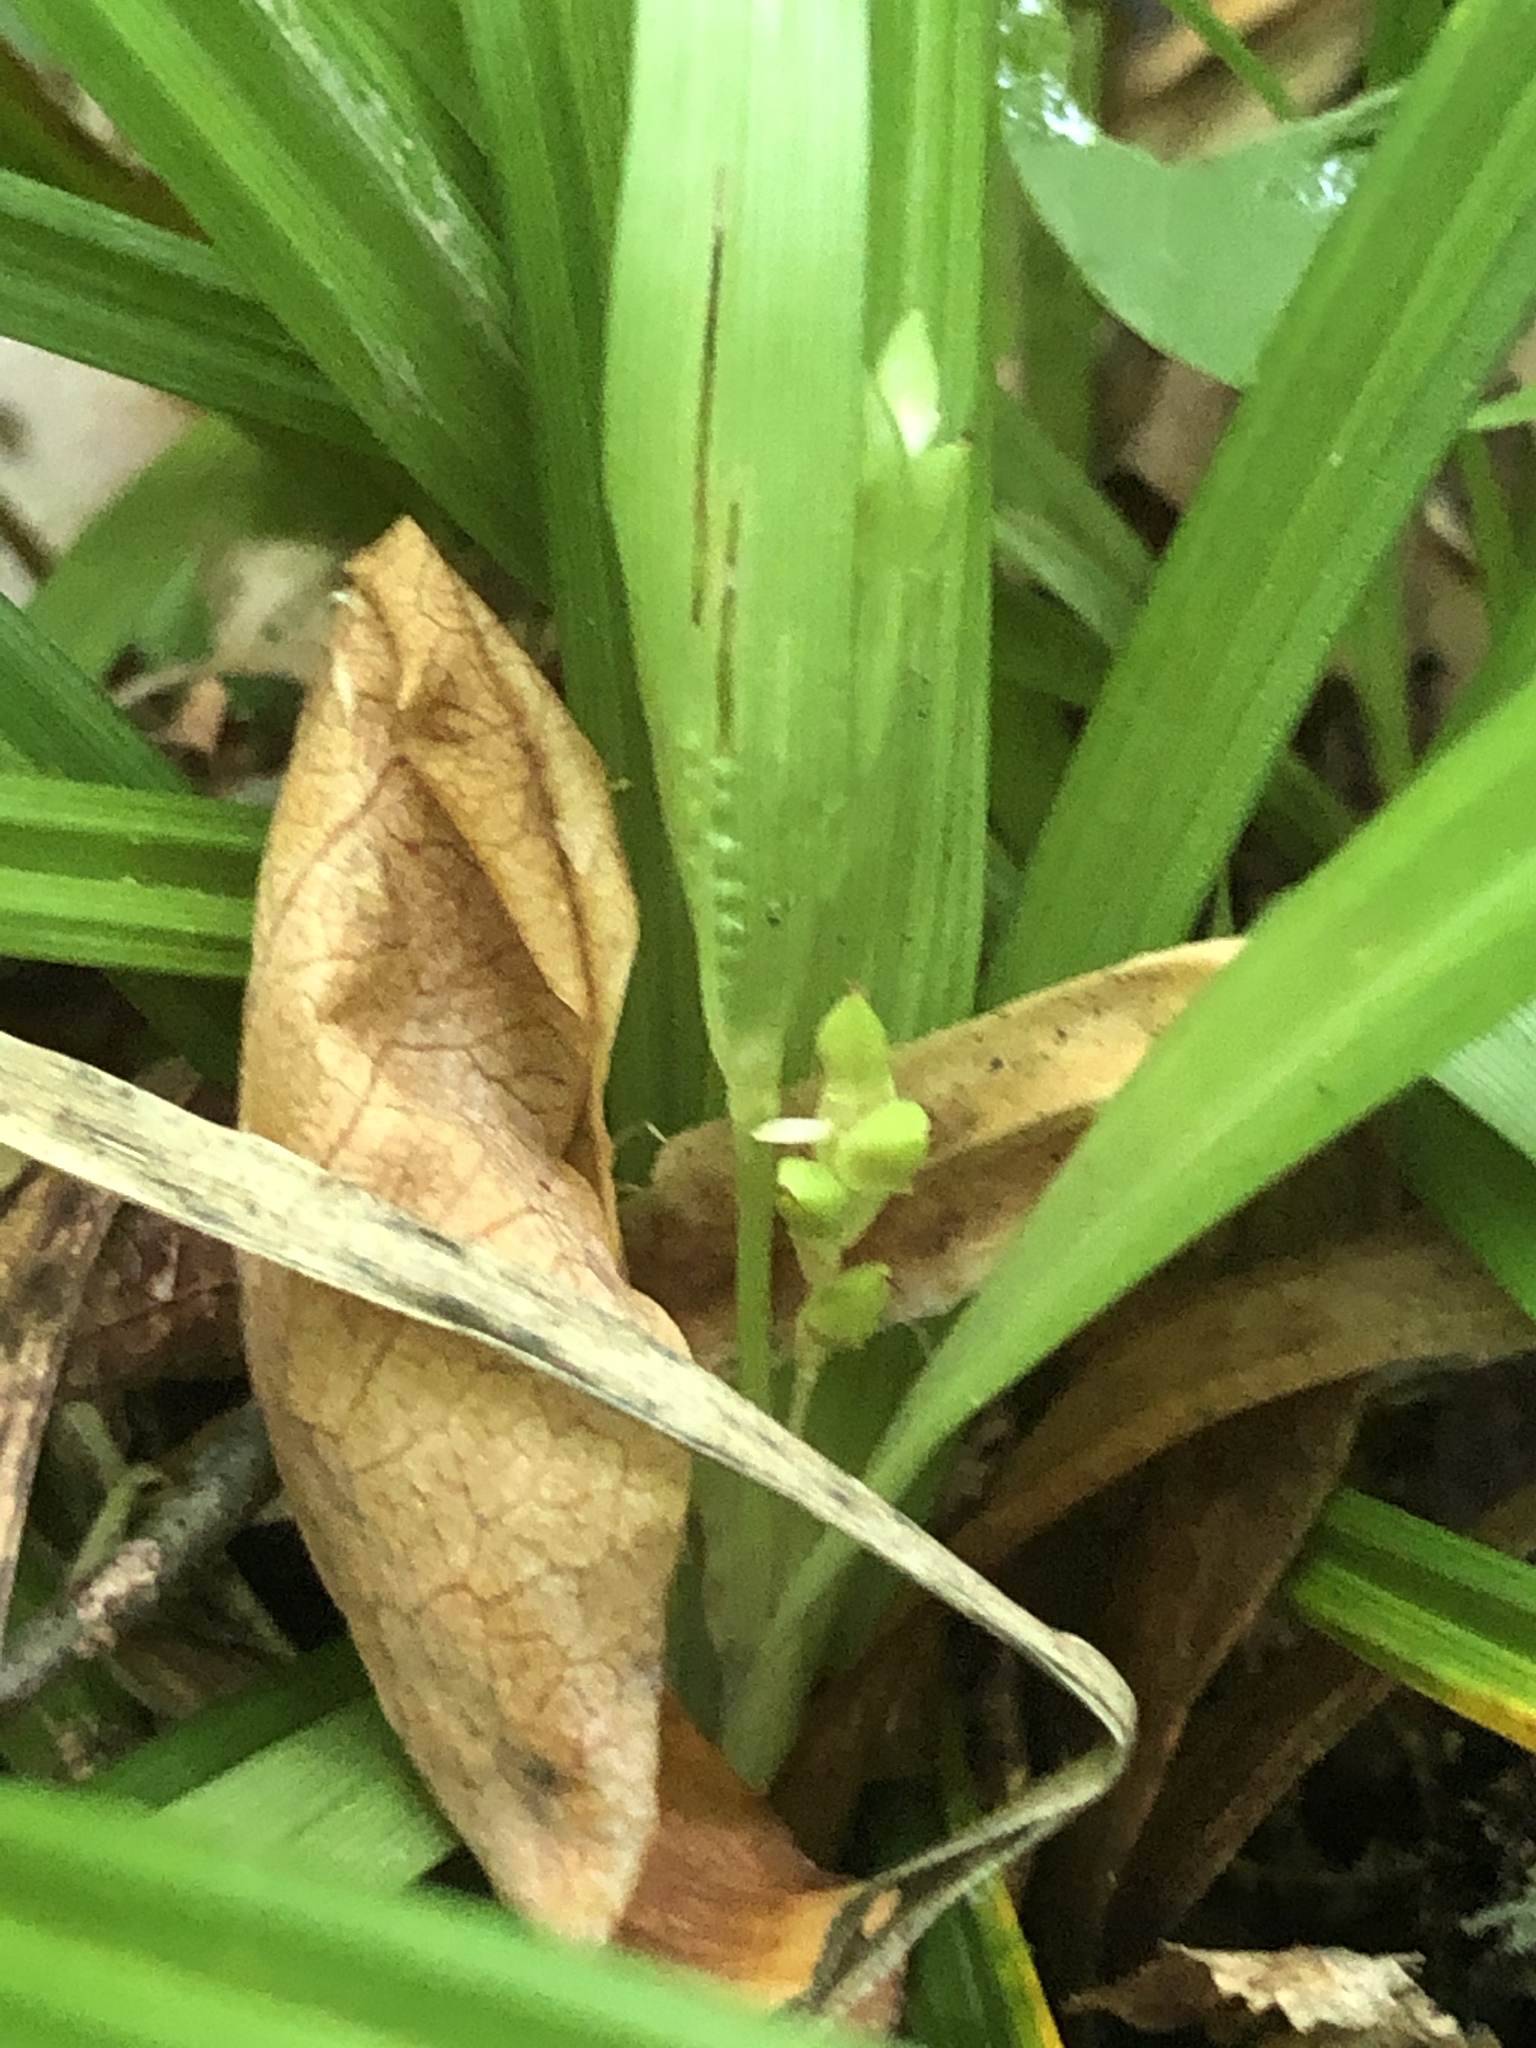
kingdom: Plantae
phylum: Tracheophyta
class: Liliopsida
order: Poales
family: Cyperaceae
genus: Carex
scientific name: Carex abscondita
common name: Thicket sedge
